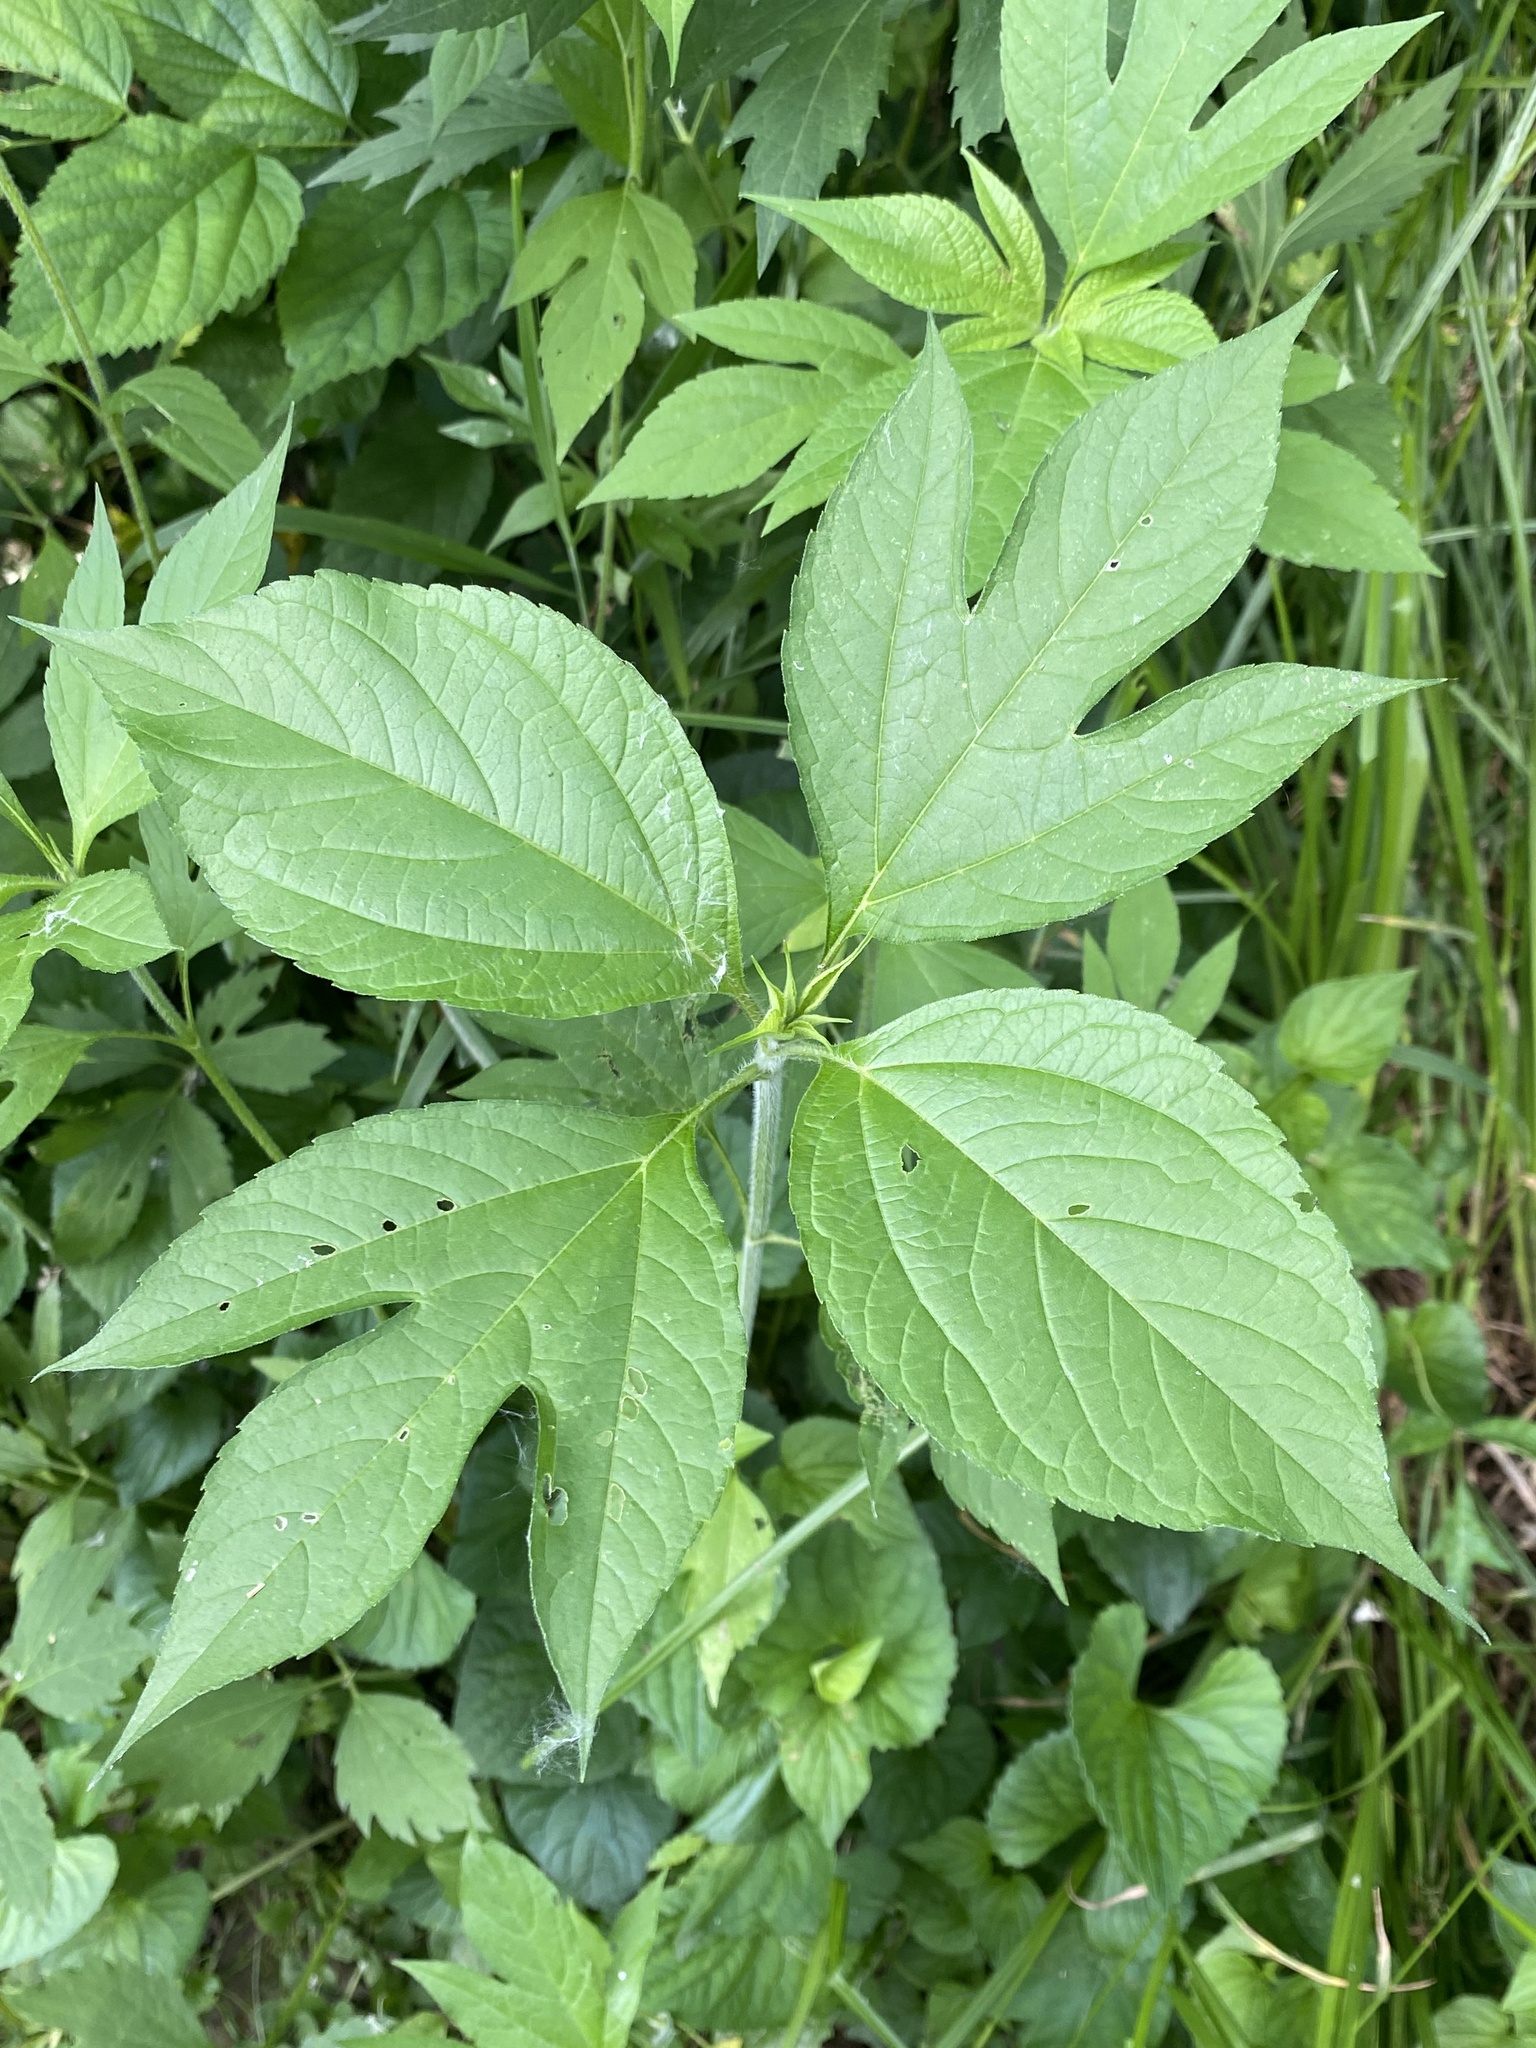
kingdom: Plantae
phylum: Tracheophyta
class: Magnoliopsida
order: Asterales
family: Asteraceae
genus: Ambrosia
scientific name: Ambrosia trifida
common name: Giant ragweed
